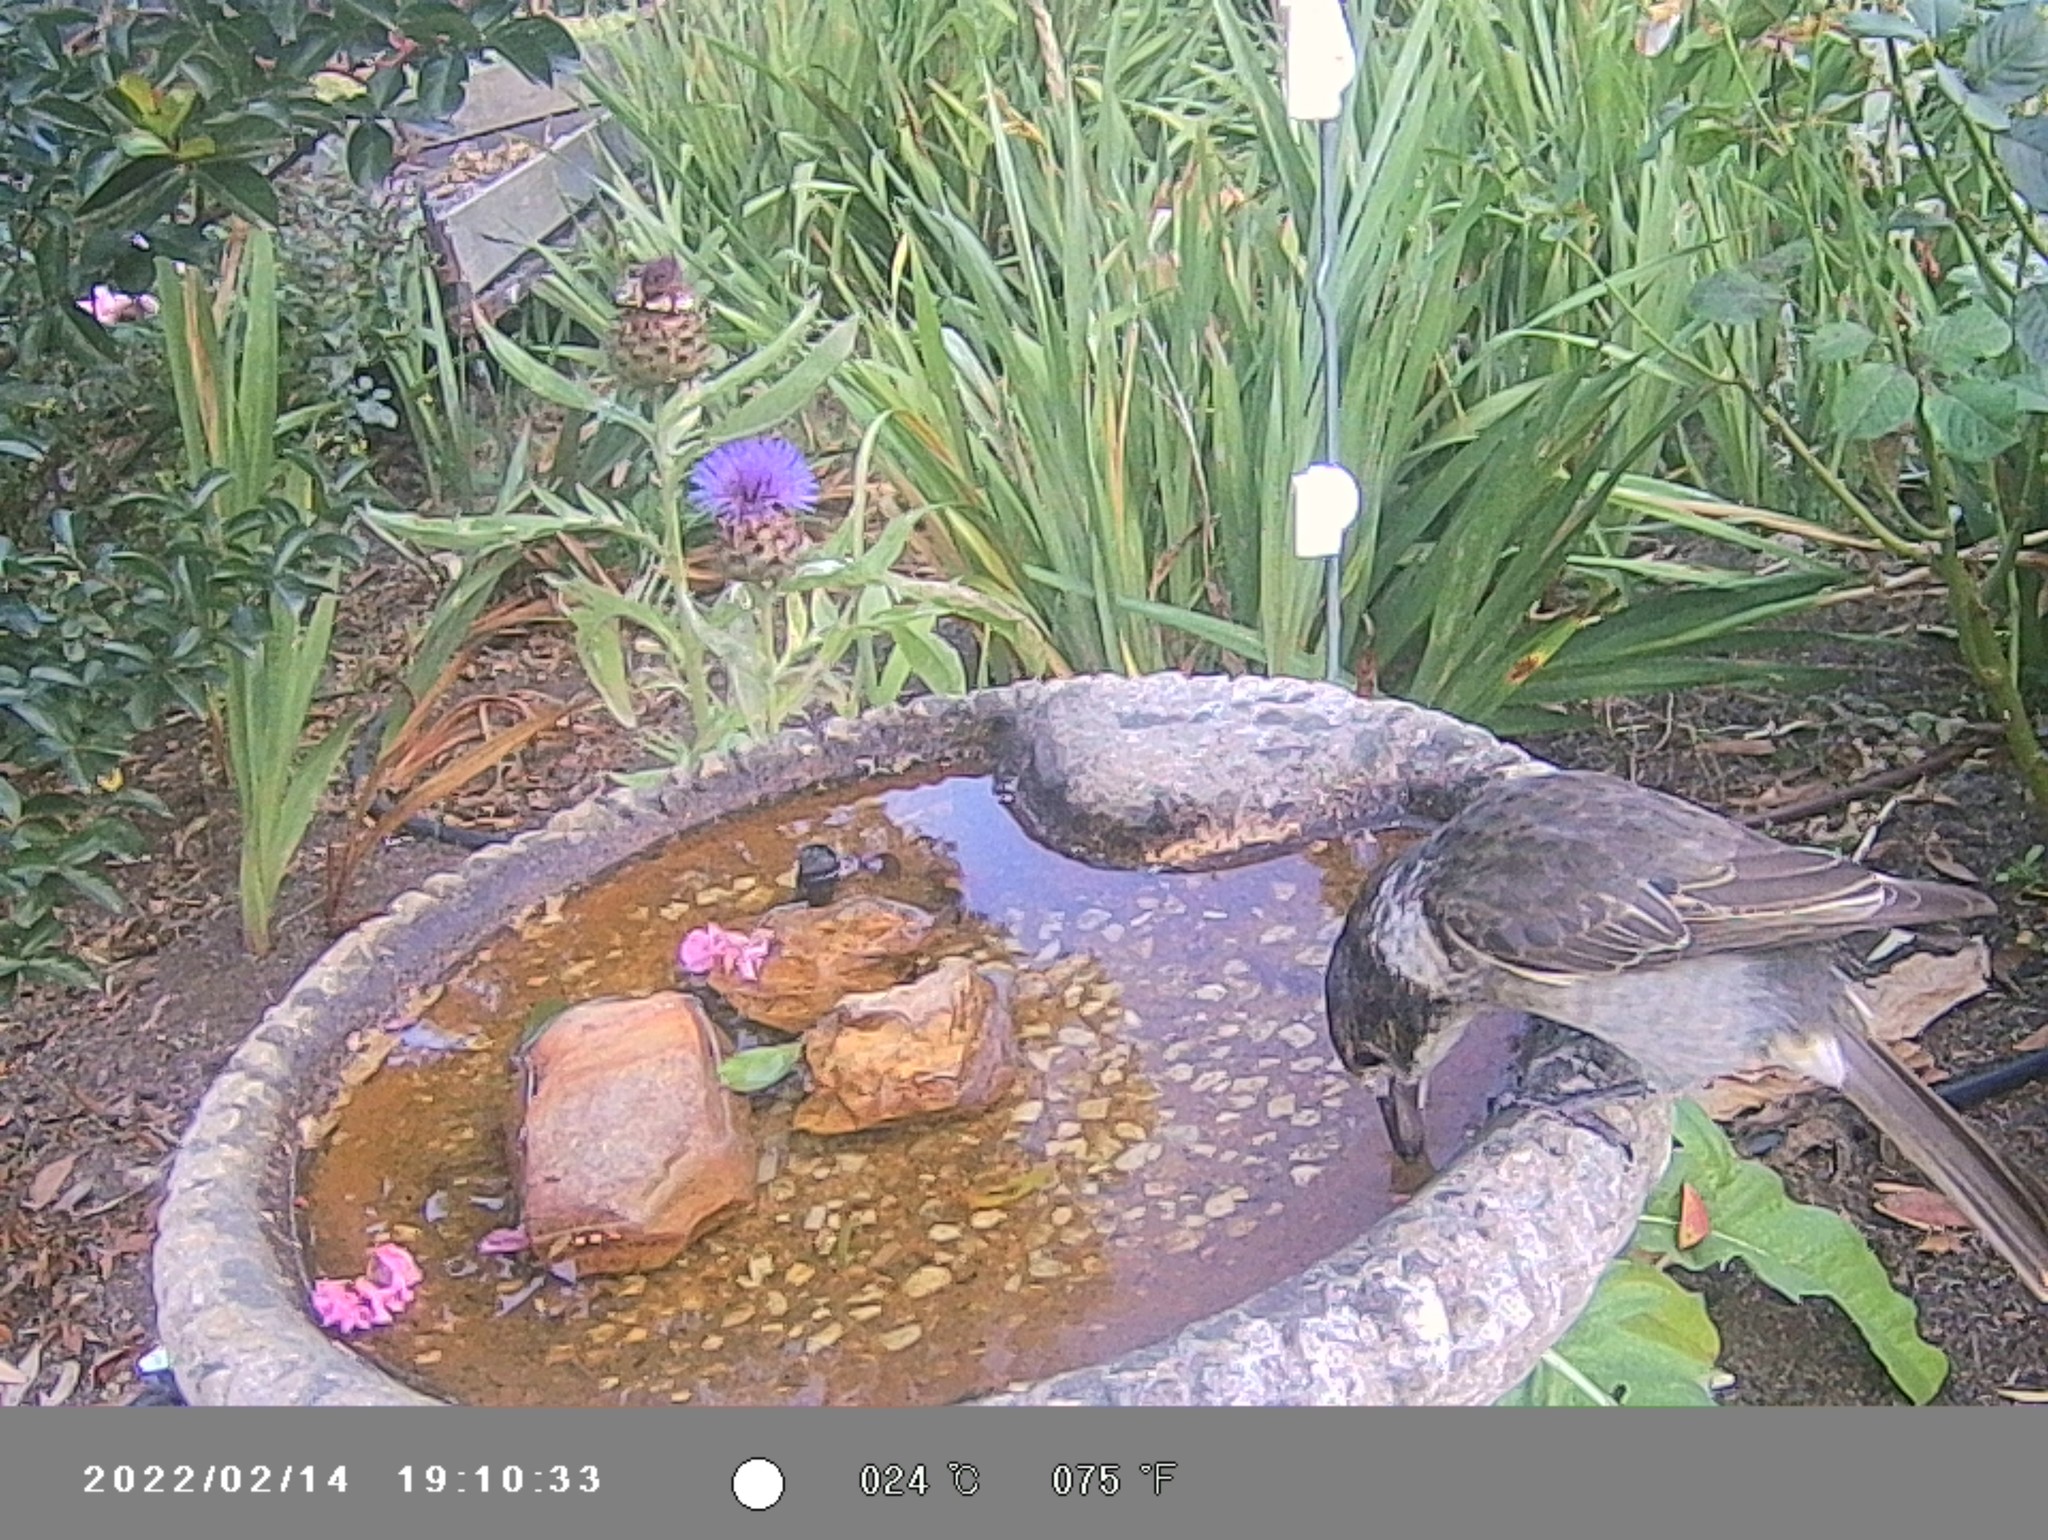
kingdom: Animalia
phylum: Chordata
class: Aves
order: Passeriformes
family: Cracticidae
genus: Cracticus
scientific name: Cracticus torquatus
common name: Grey butcherbird
